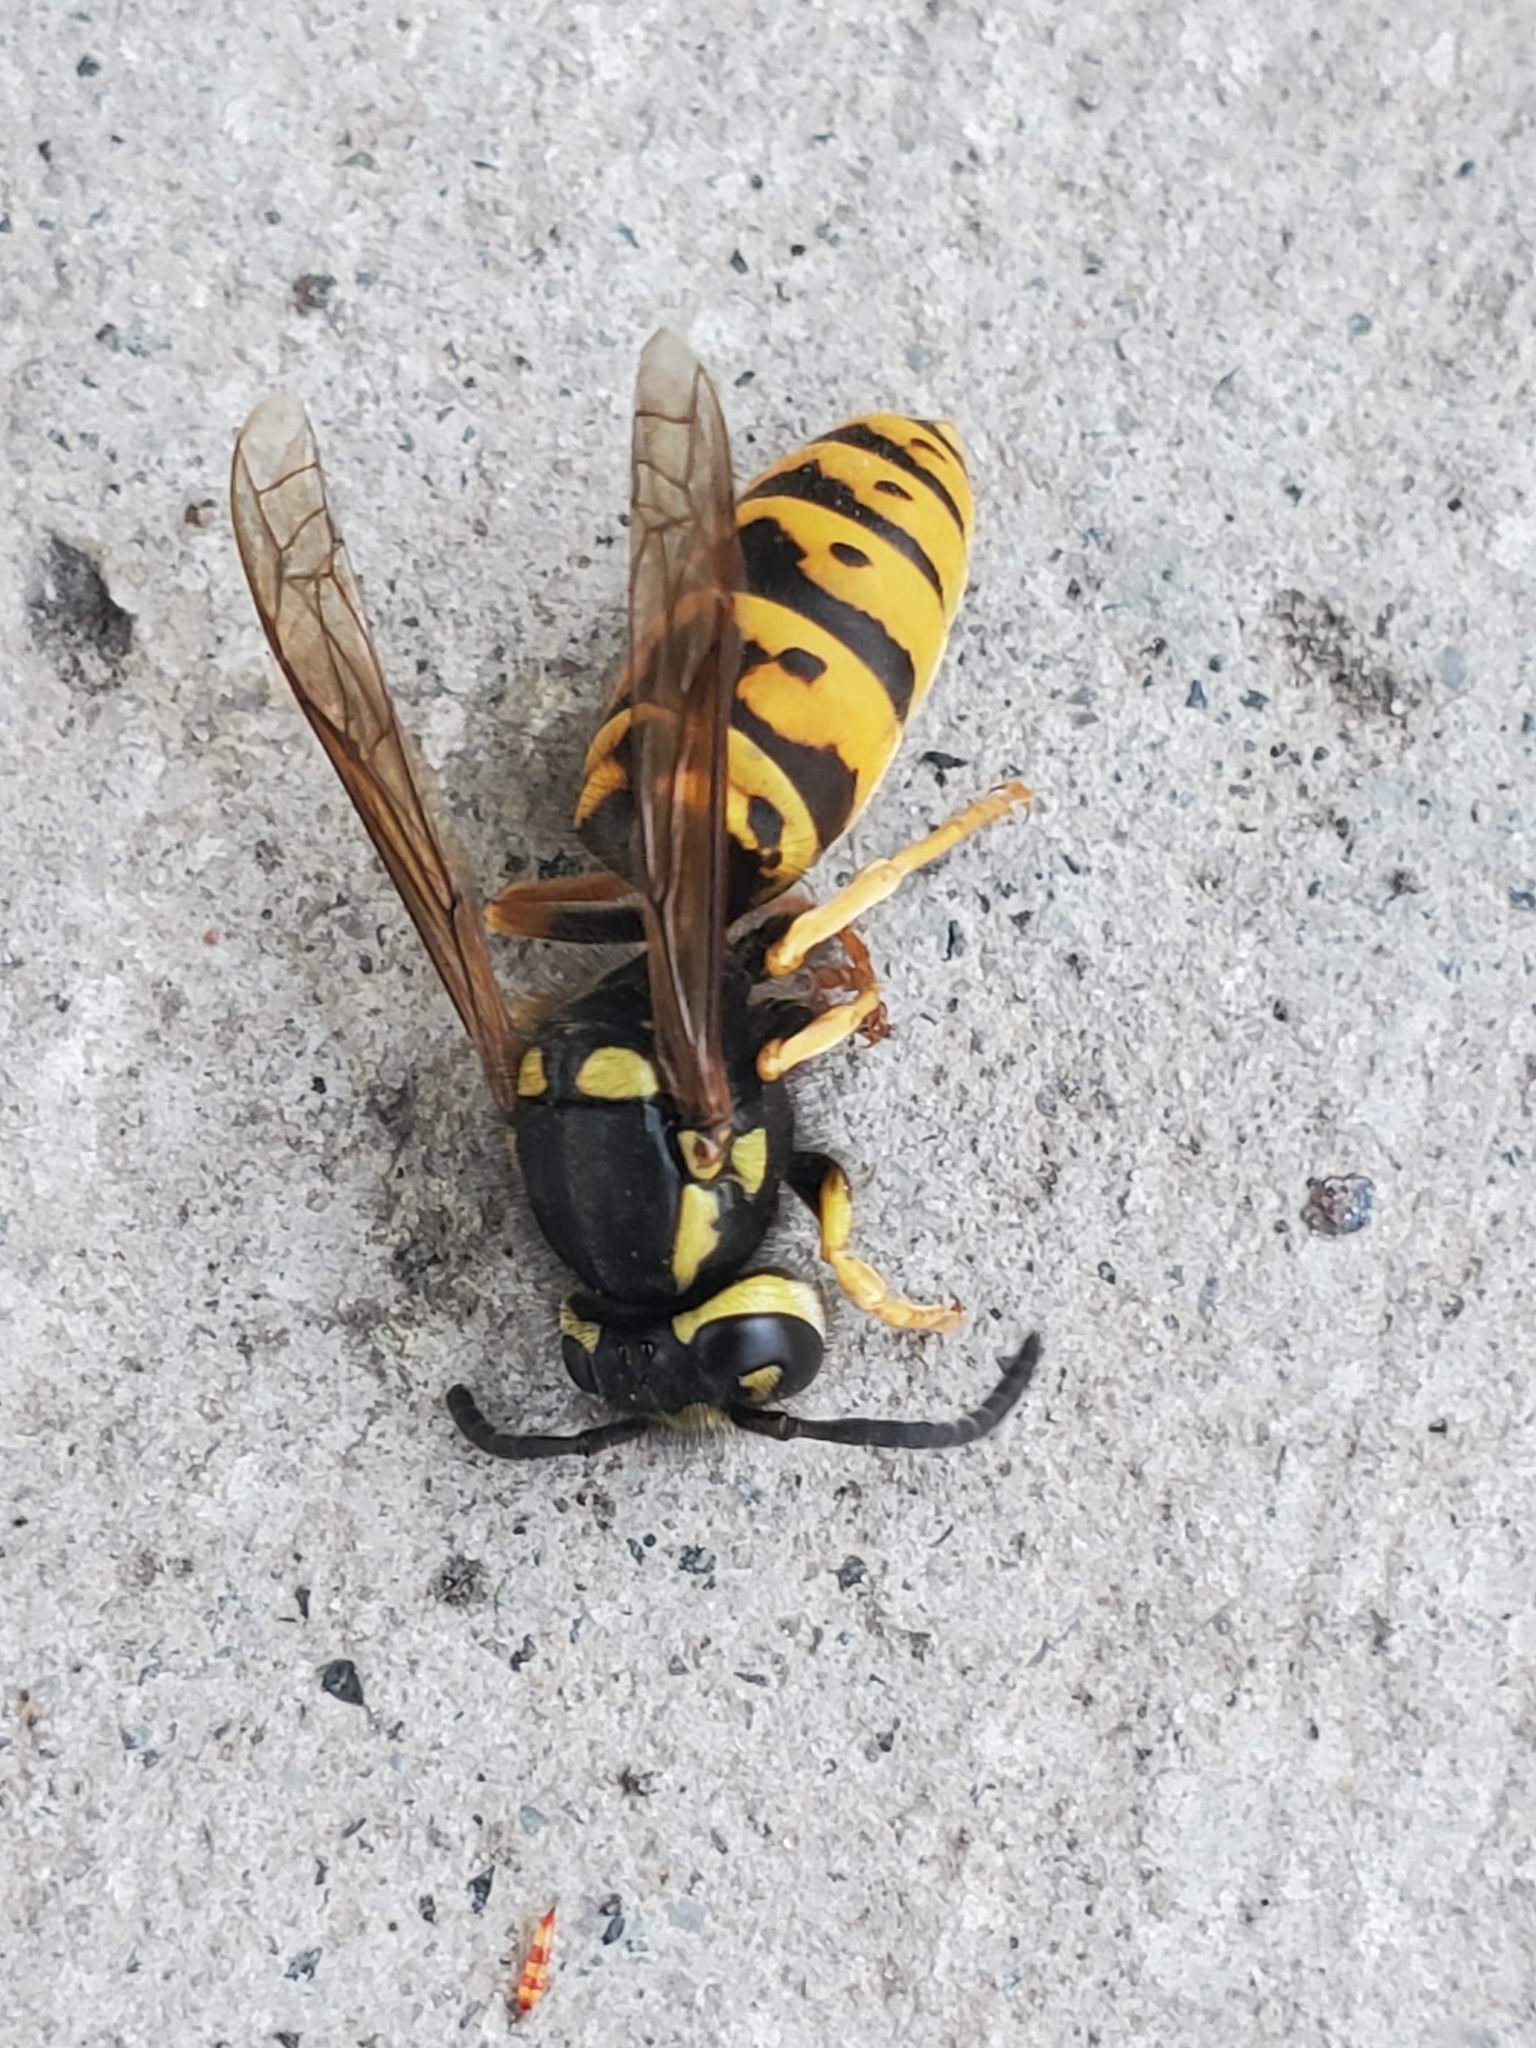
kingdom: Animalia
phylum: Arthropoda
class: Insecta
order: Hymenoptera
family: Vespidae
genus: Vespula
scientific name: Vespula atropilosa
